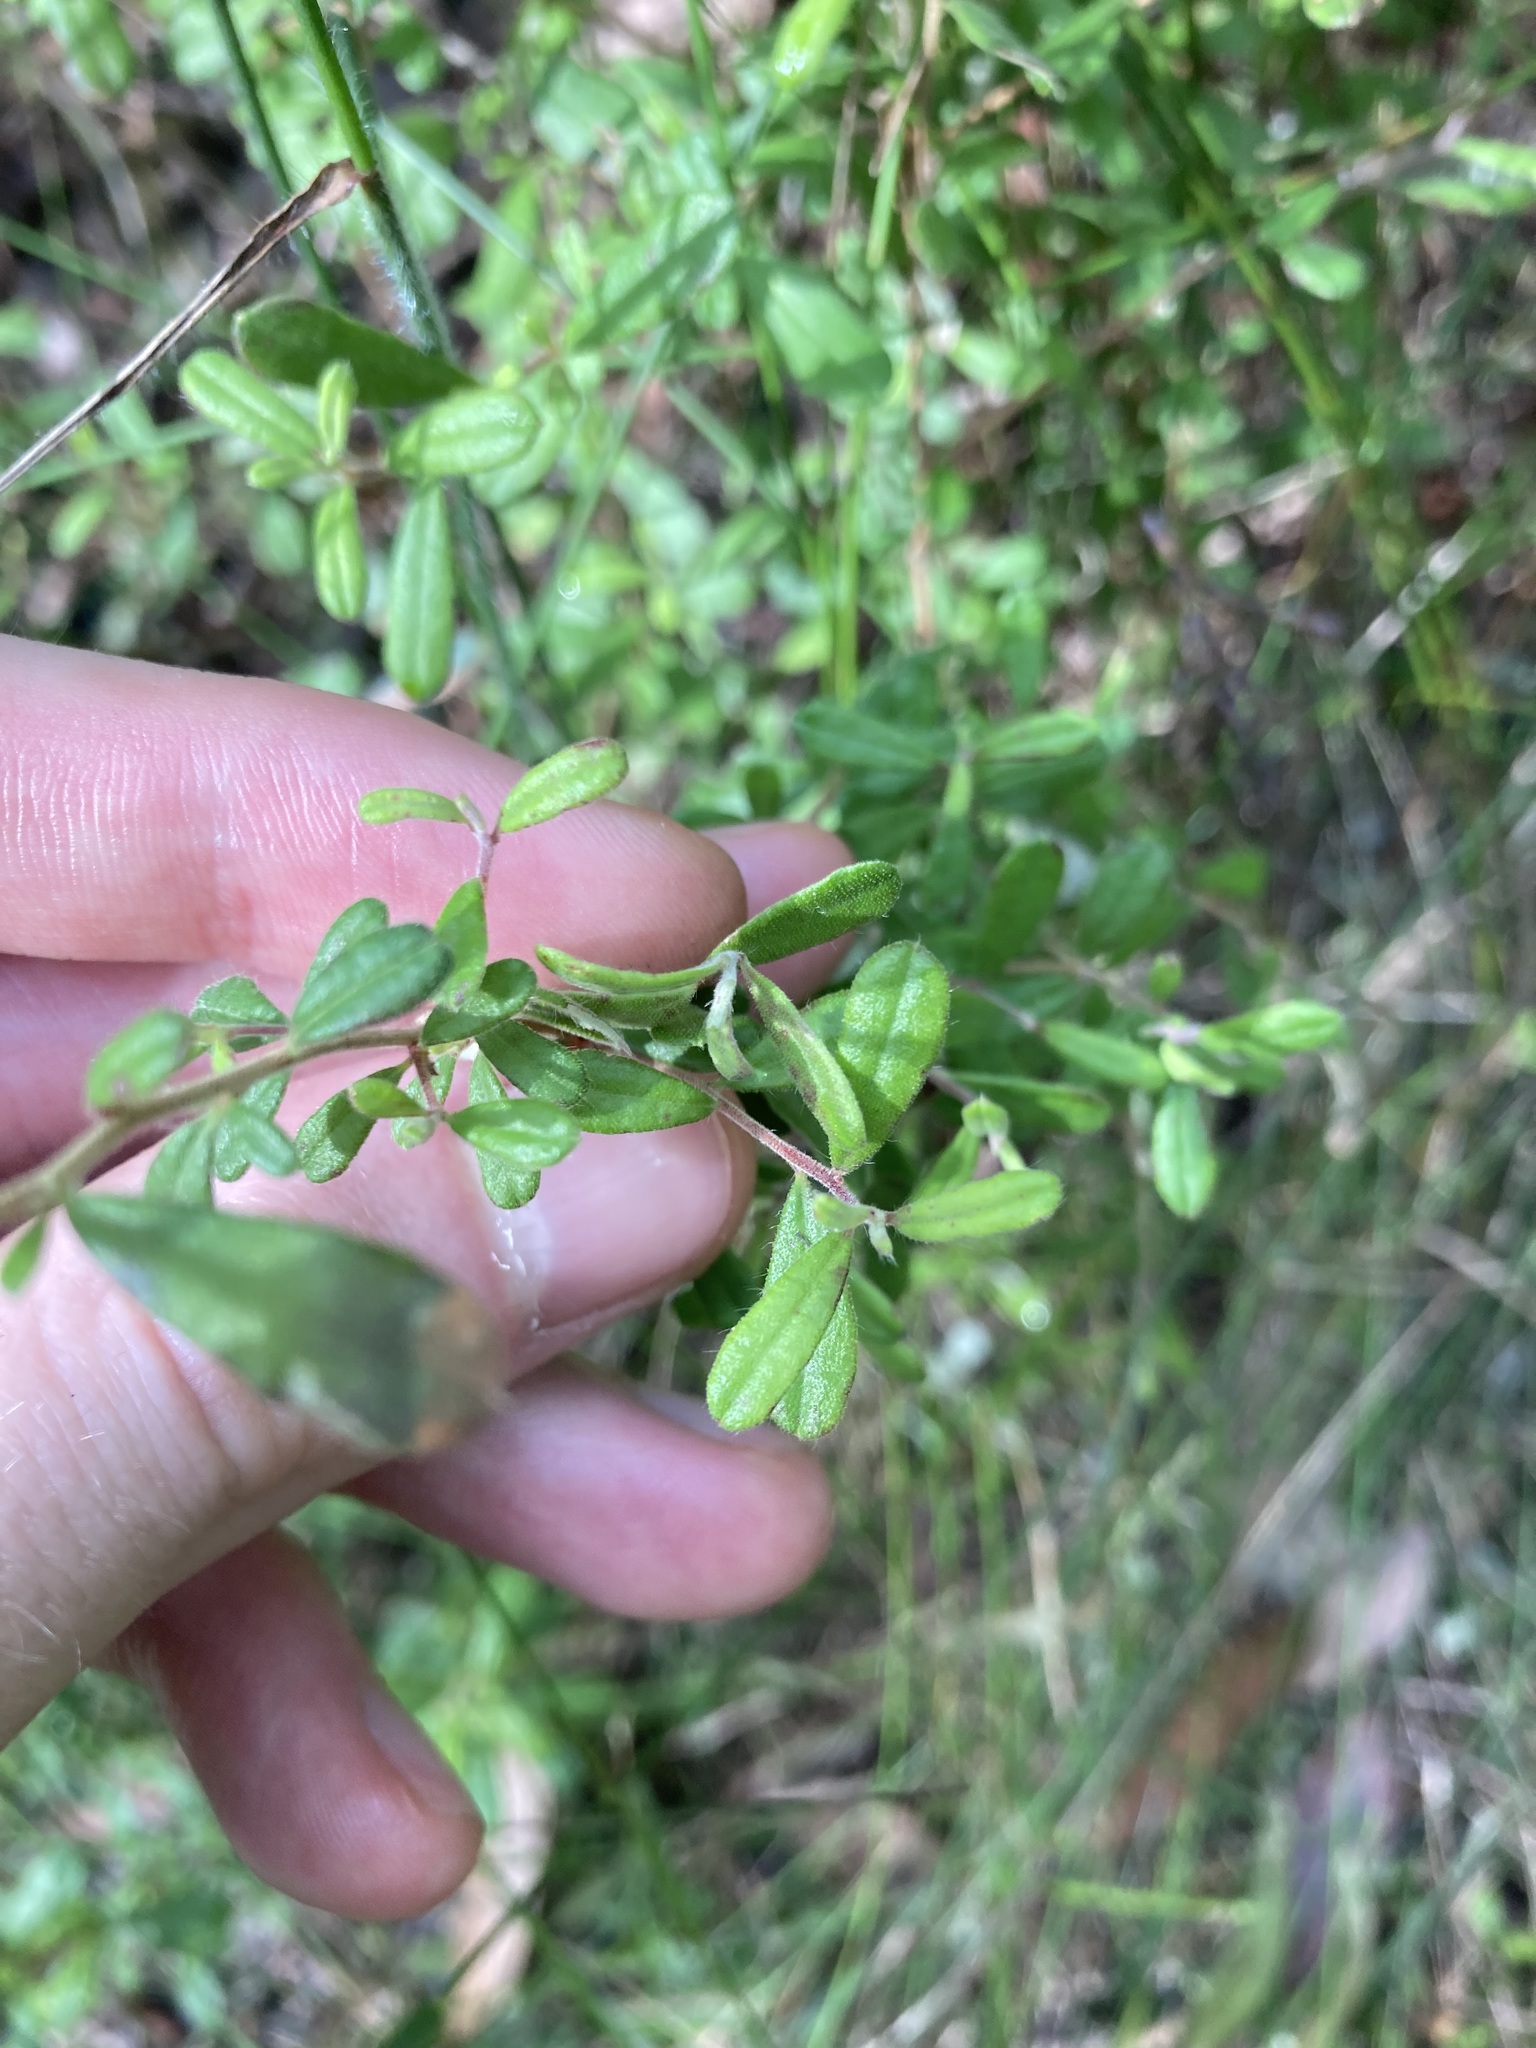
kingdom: Plantae
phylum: Tracheophyta
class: Magnoliopsida
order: Dilleniales
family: Dilleniaceae
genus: Hibbertia
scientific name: Hibbertia aspera
